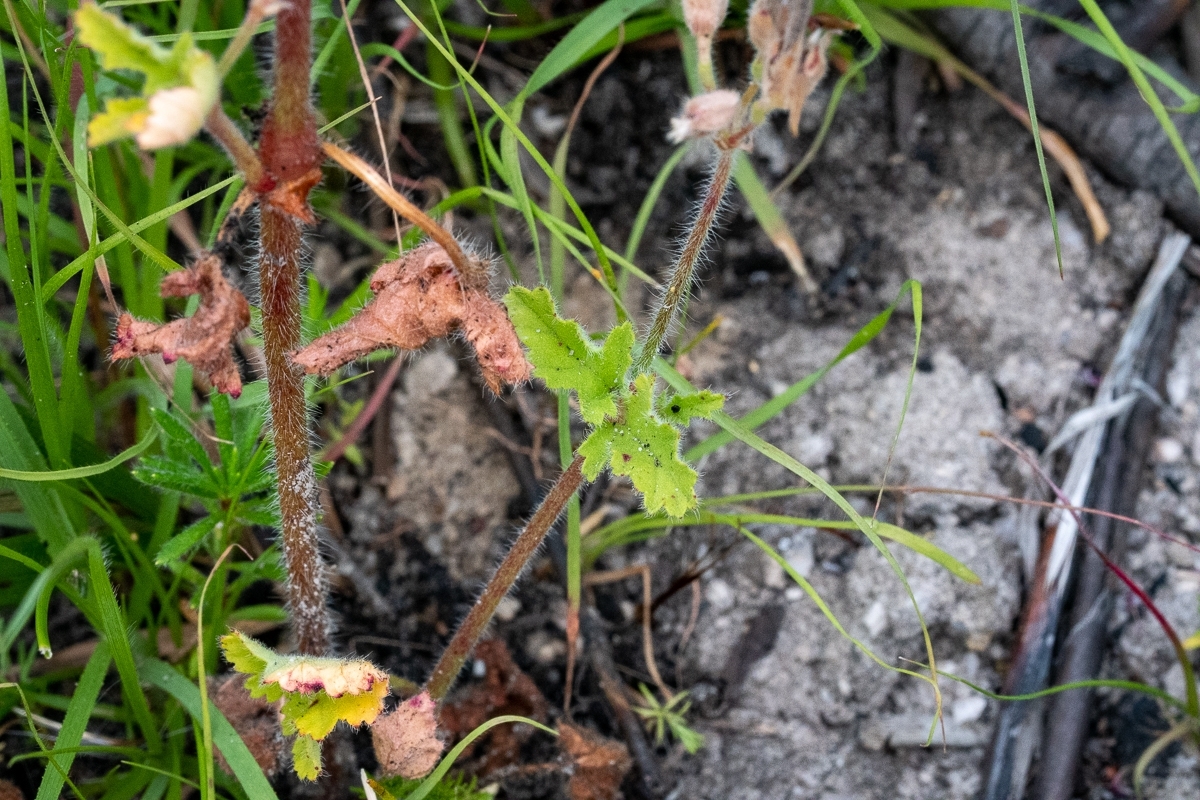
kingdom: Plantae
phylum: Tracheophyta
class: Magnoliopsida
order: Geraniales
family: Geraniaceae
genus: Pelargonium
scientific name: Pelargonium althaeoides
